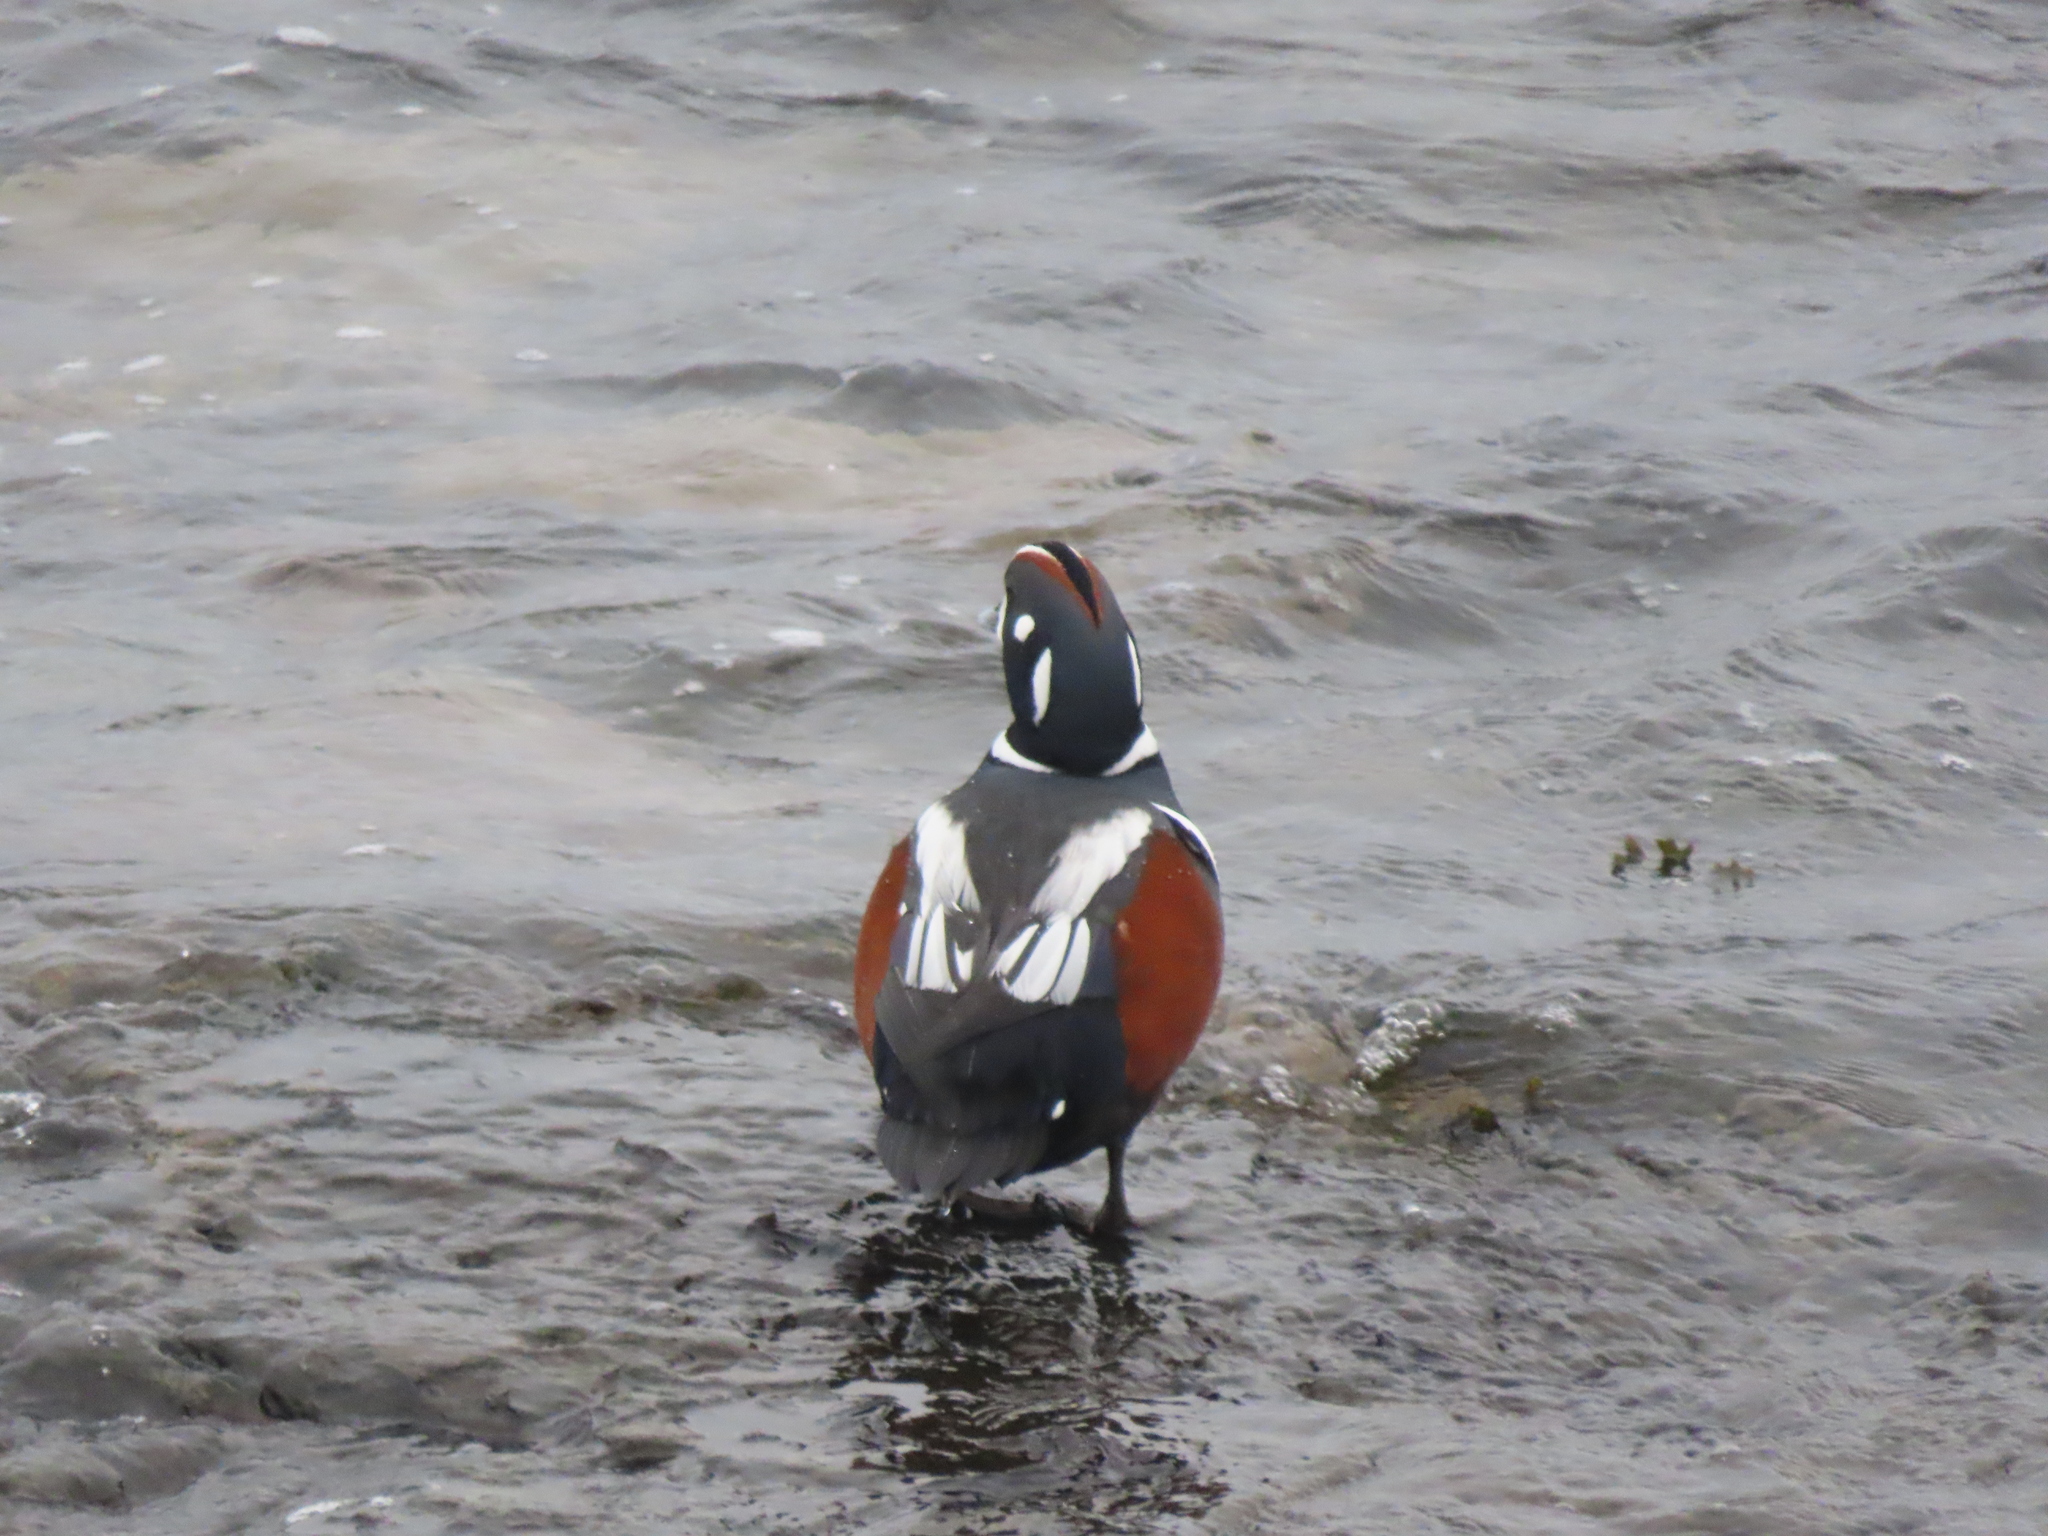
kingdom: Animalia
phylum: Chordata
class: Aves
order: Anseriformes
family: Anatidae
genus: Histrionicus
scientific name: Histrionicus histrionicus
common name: Harlequin duck
